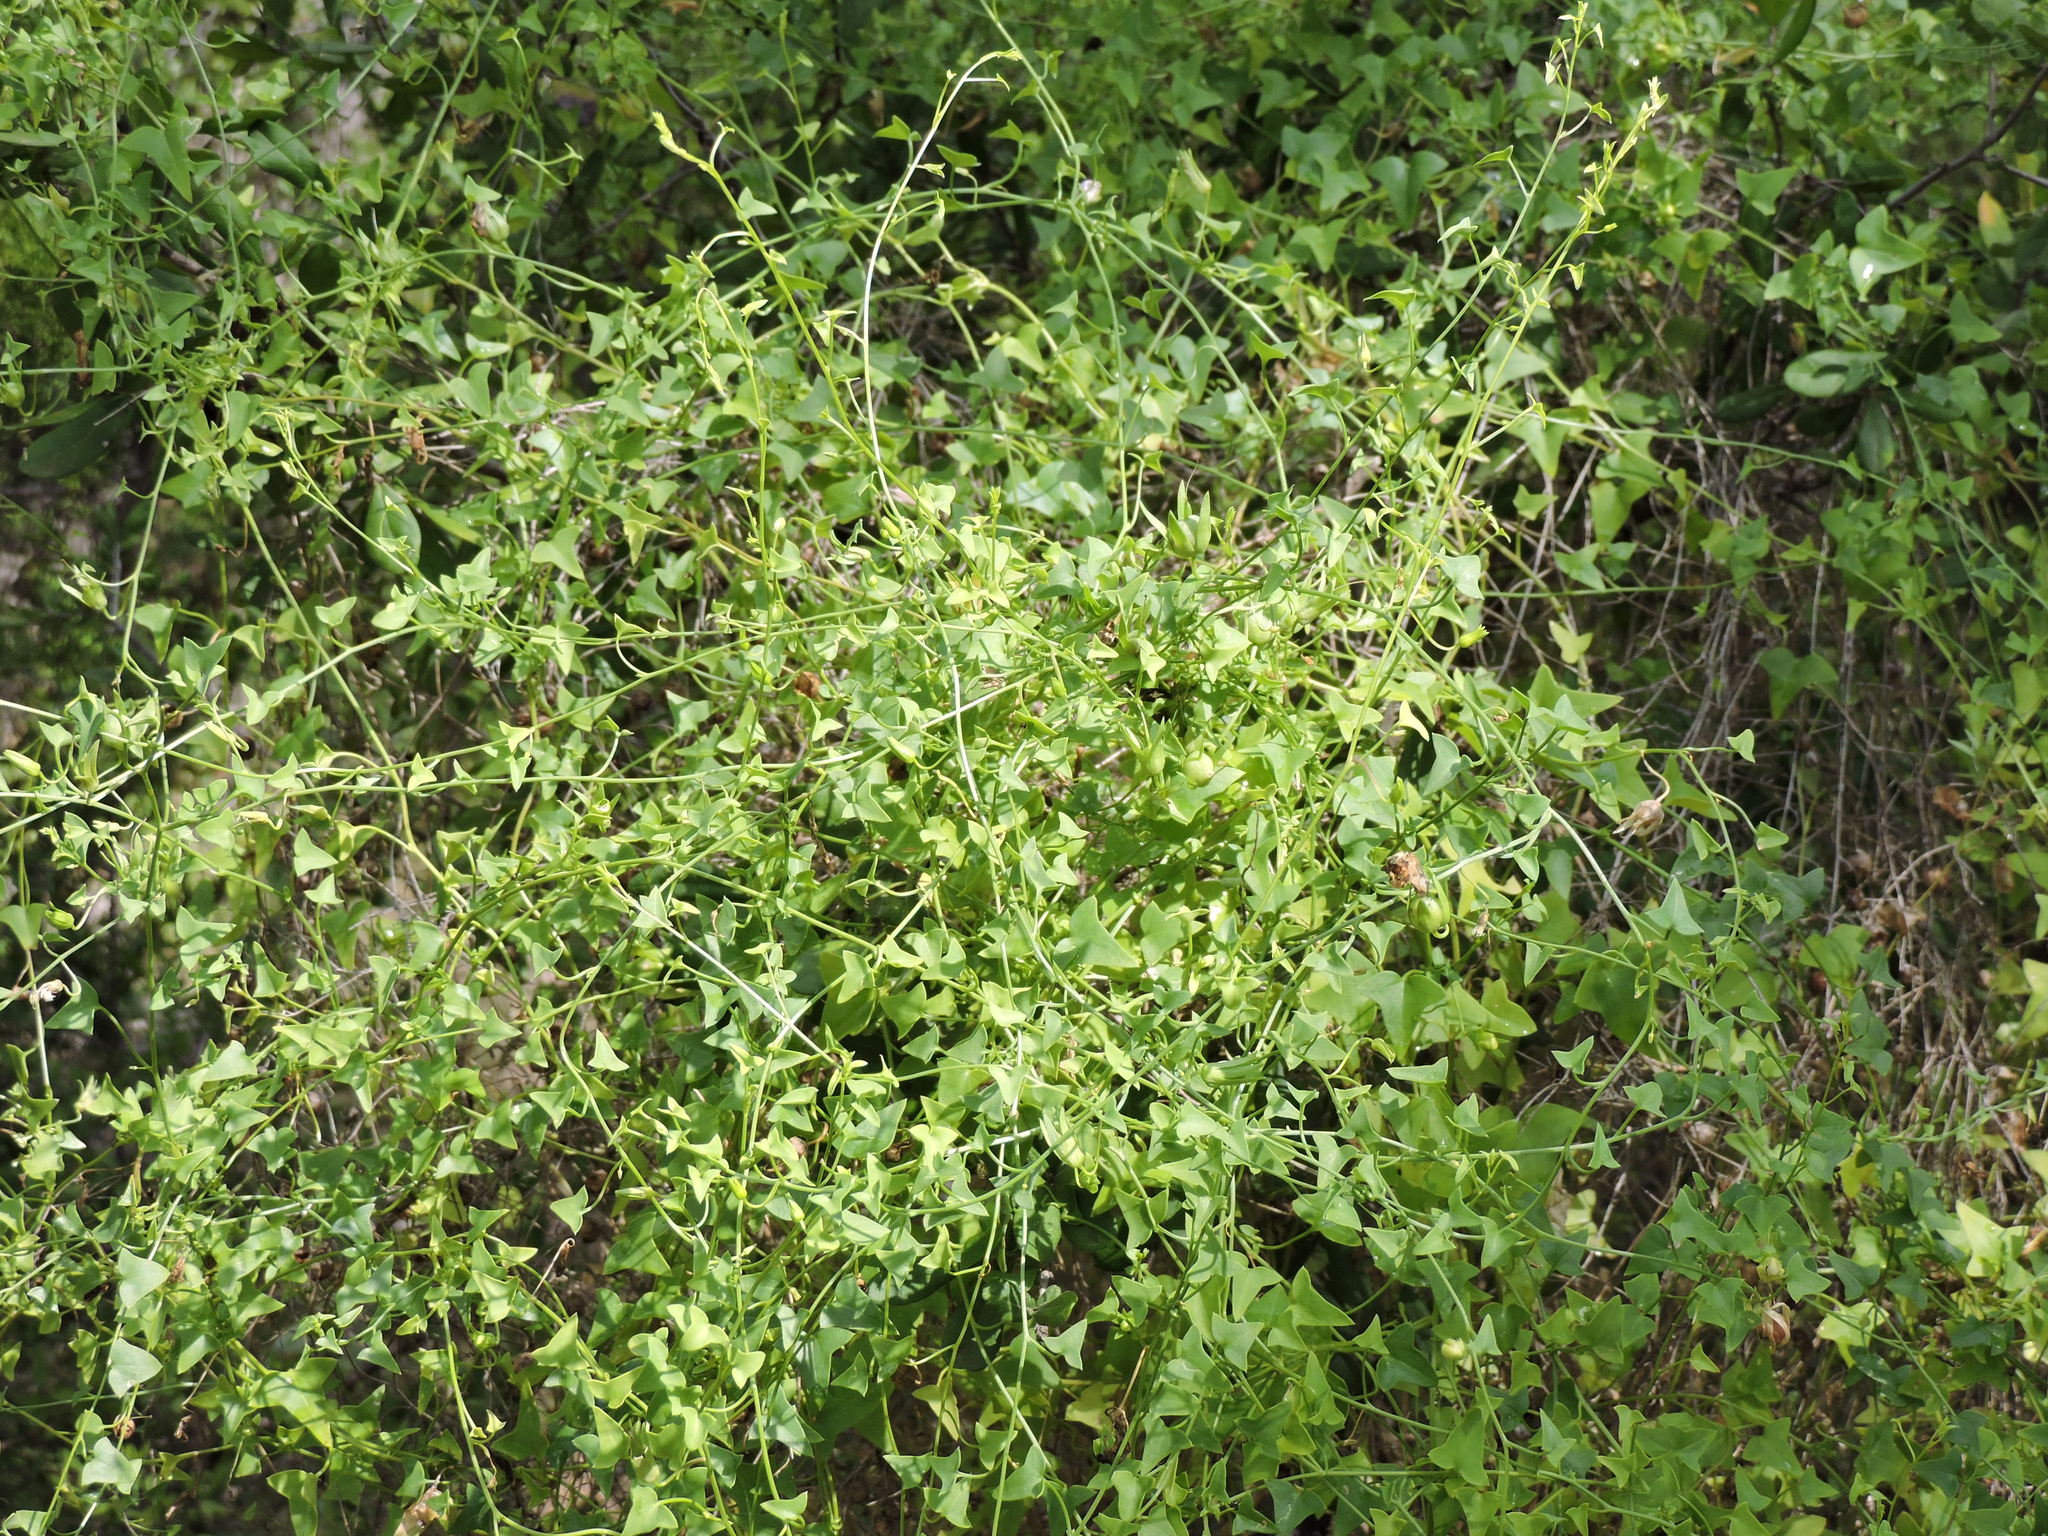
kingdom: Plantae
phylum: Tracheophyta
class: Magnoliopsida
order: Lamiales
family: Plantaginaceae
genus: Maurandella
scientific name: Maurandella antirrhiniflora
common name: Violet twining-snapdragon
